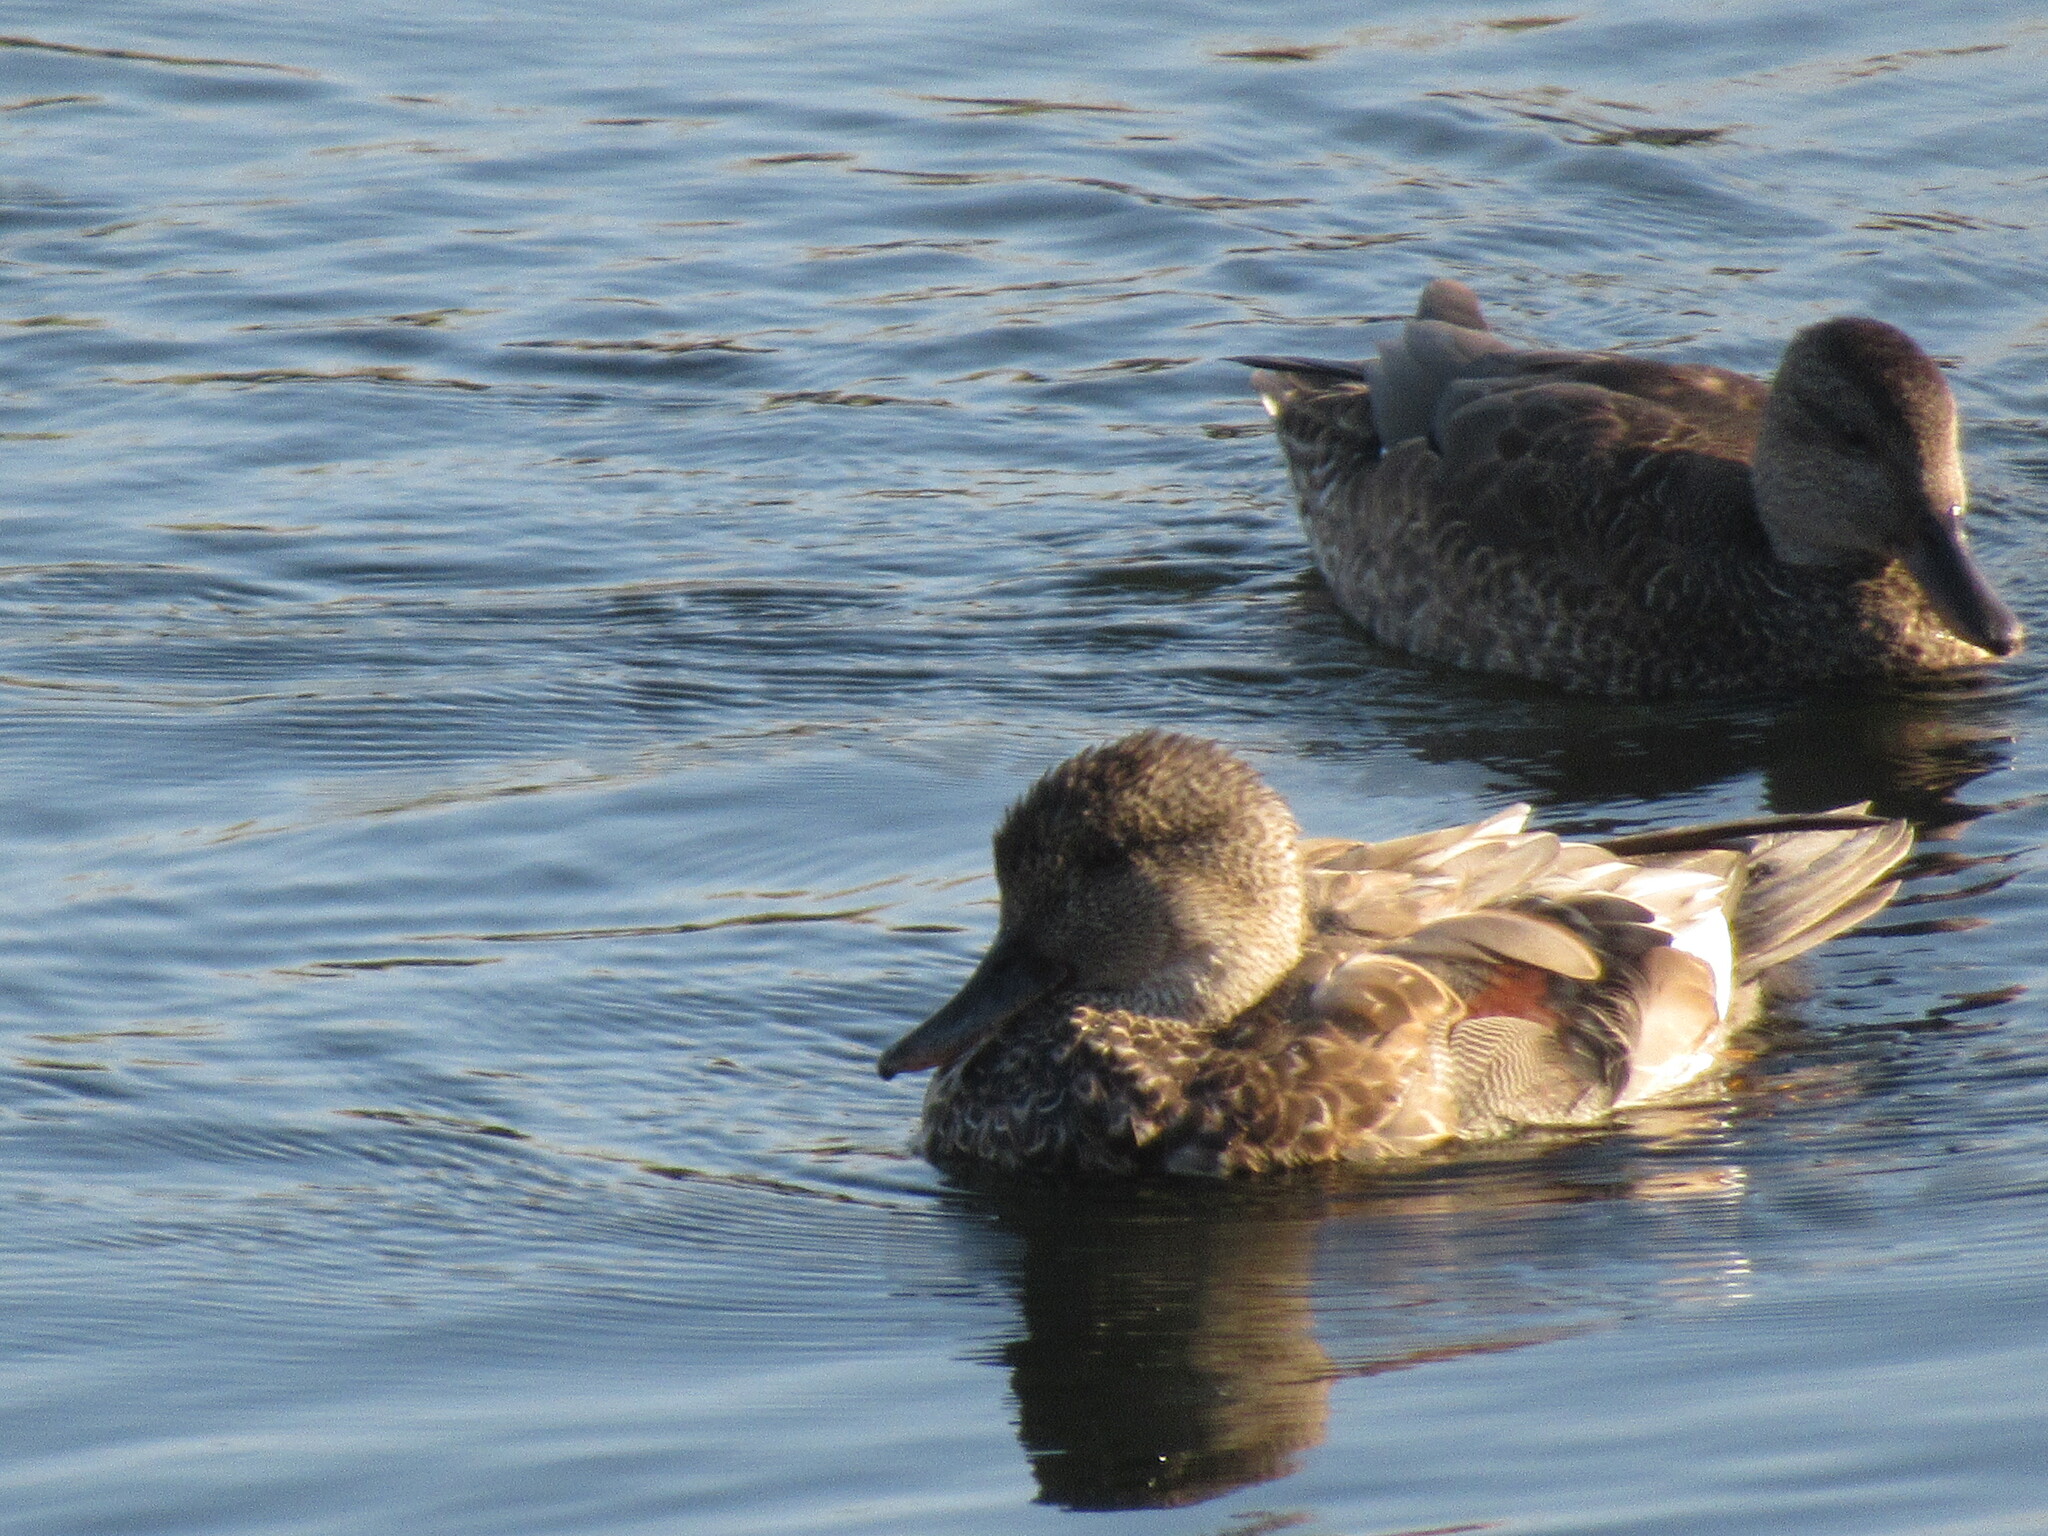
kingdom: Animalia
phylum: Chordata
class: Aves
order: Anseriformes
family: Anatidae
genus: Mareca
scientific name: Mareca strepera
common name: Gadwall
